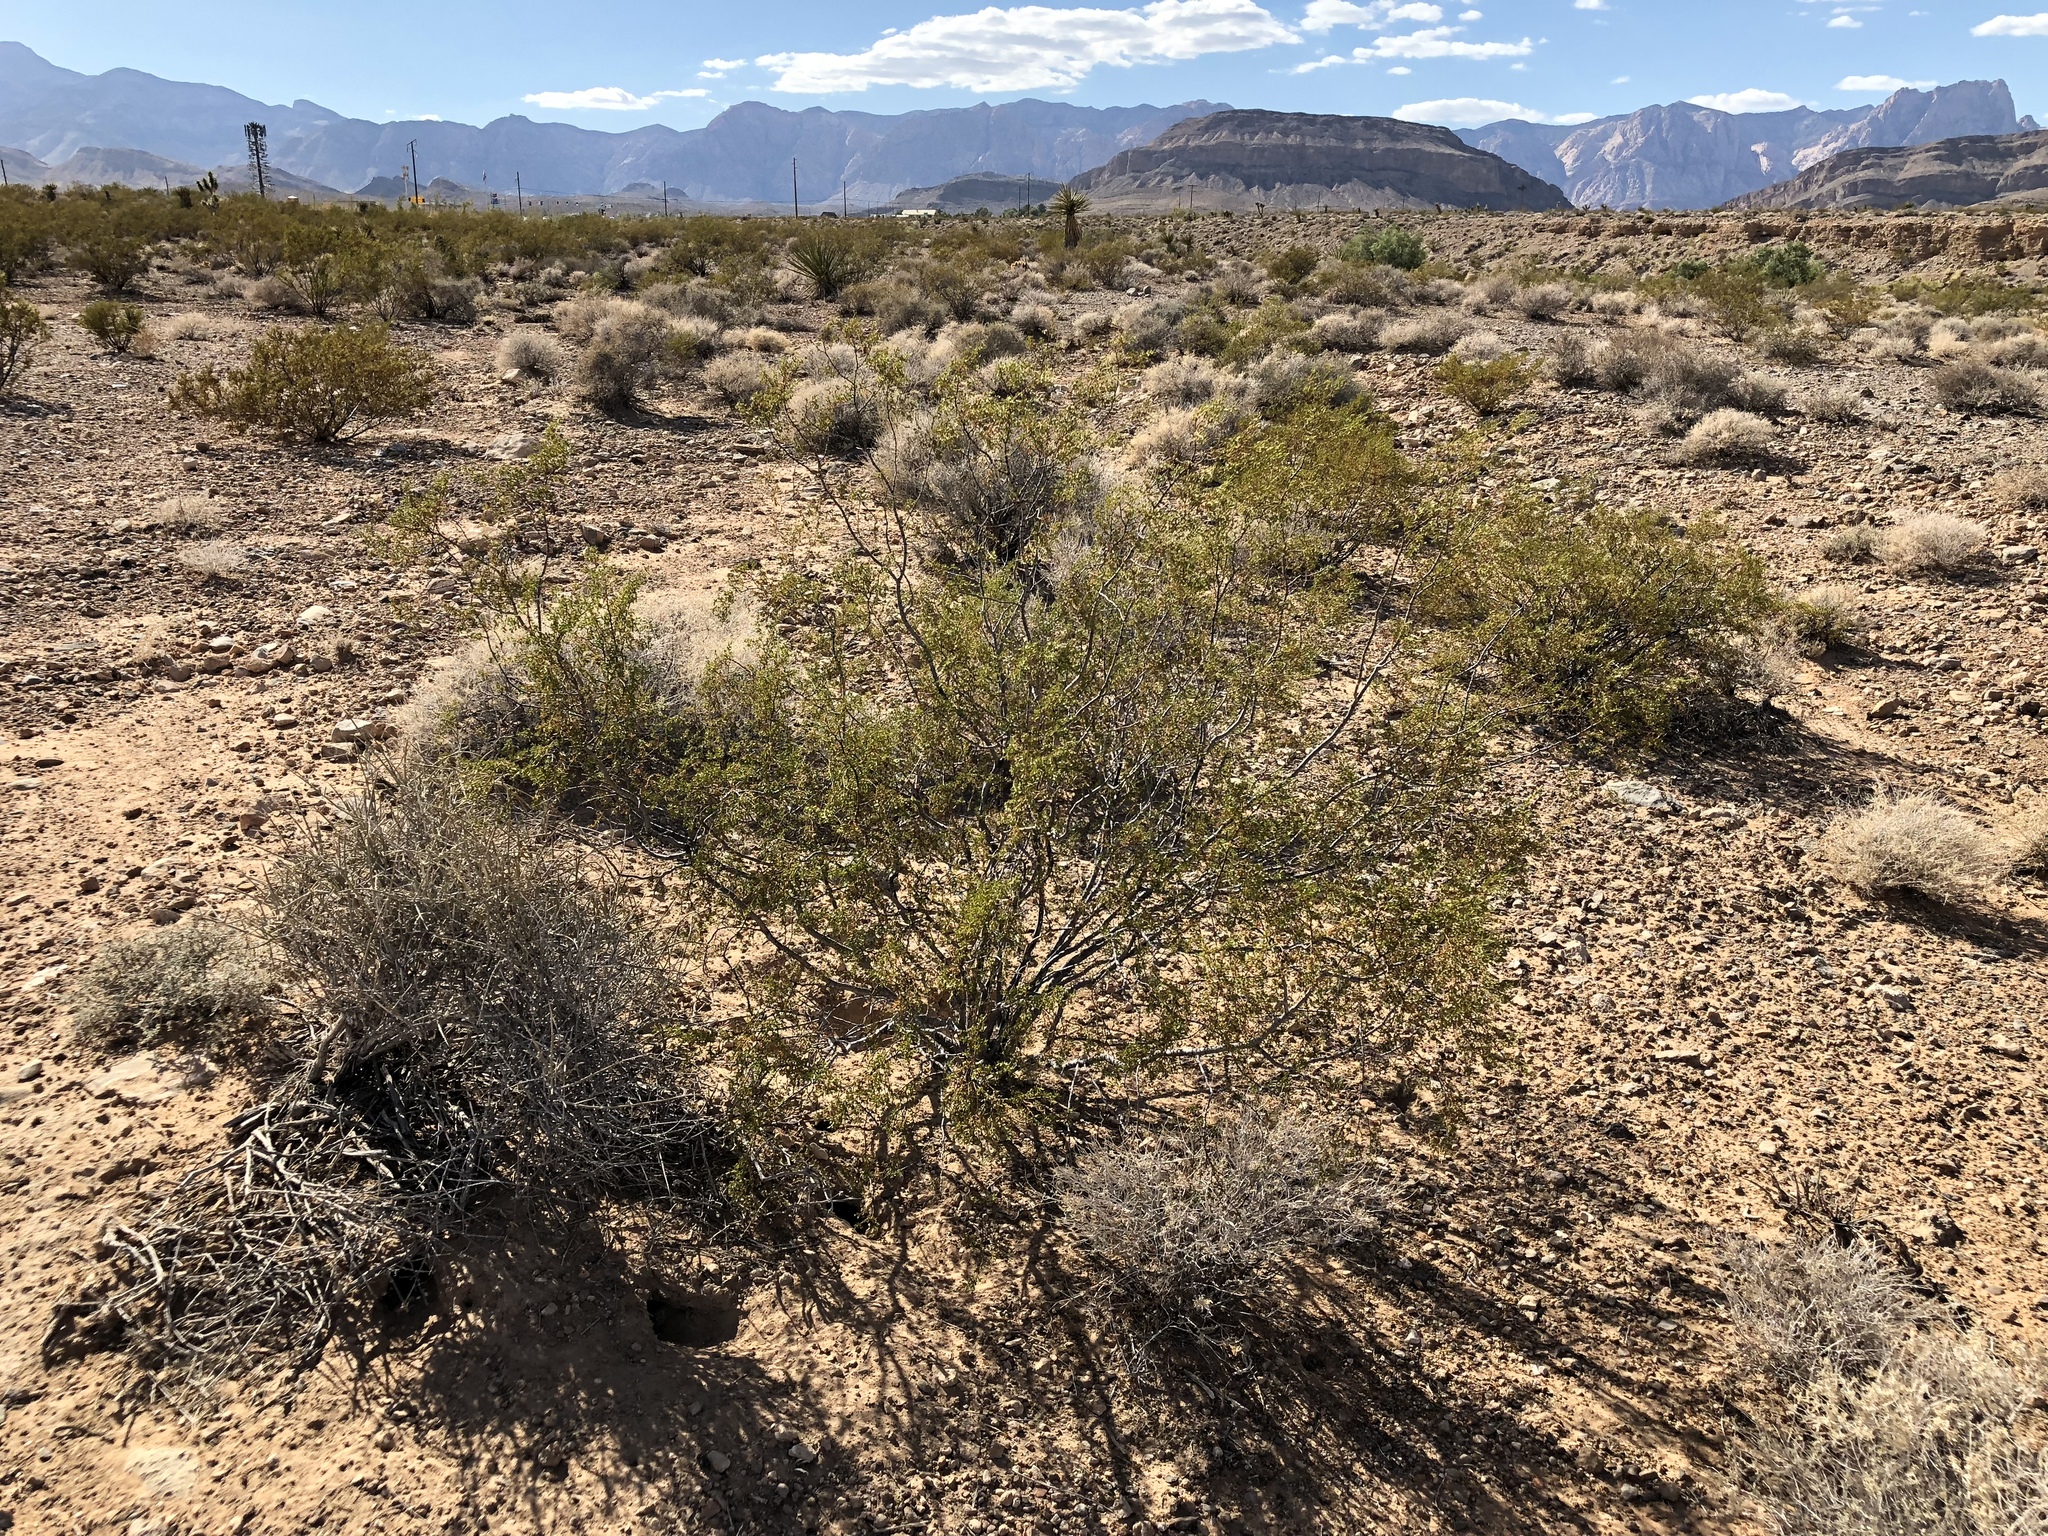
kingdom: Plantae
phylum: Tracheophyta
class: Magnoliopsida
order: Zygophyllales
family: Zygophyllaceae
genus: Larrea
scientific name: Larrea tridentata
